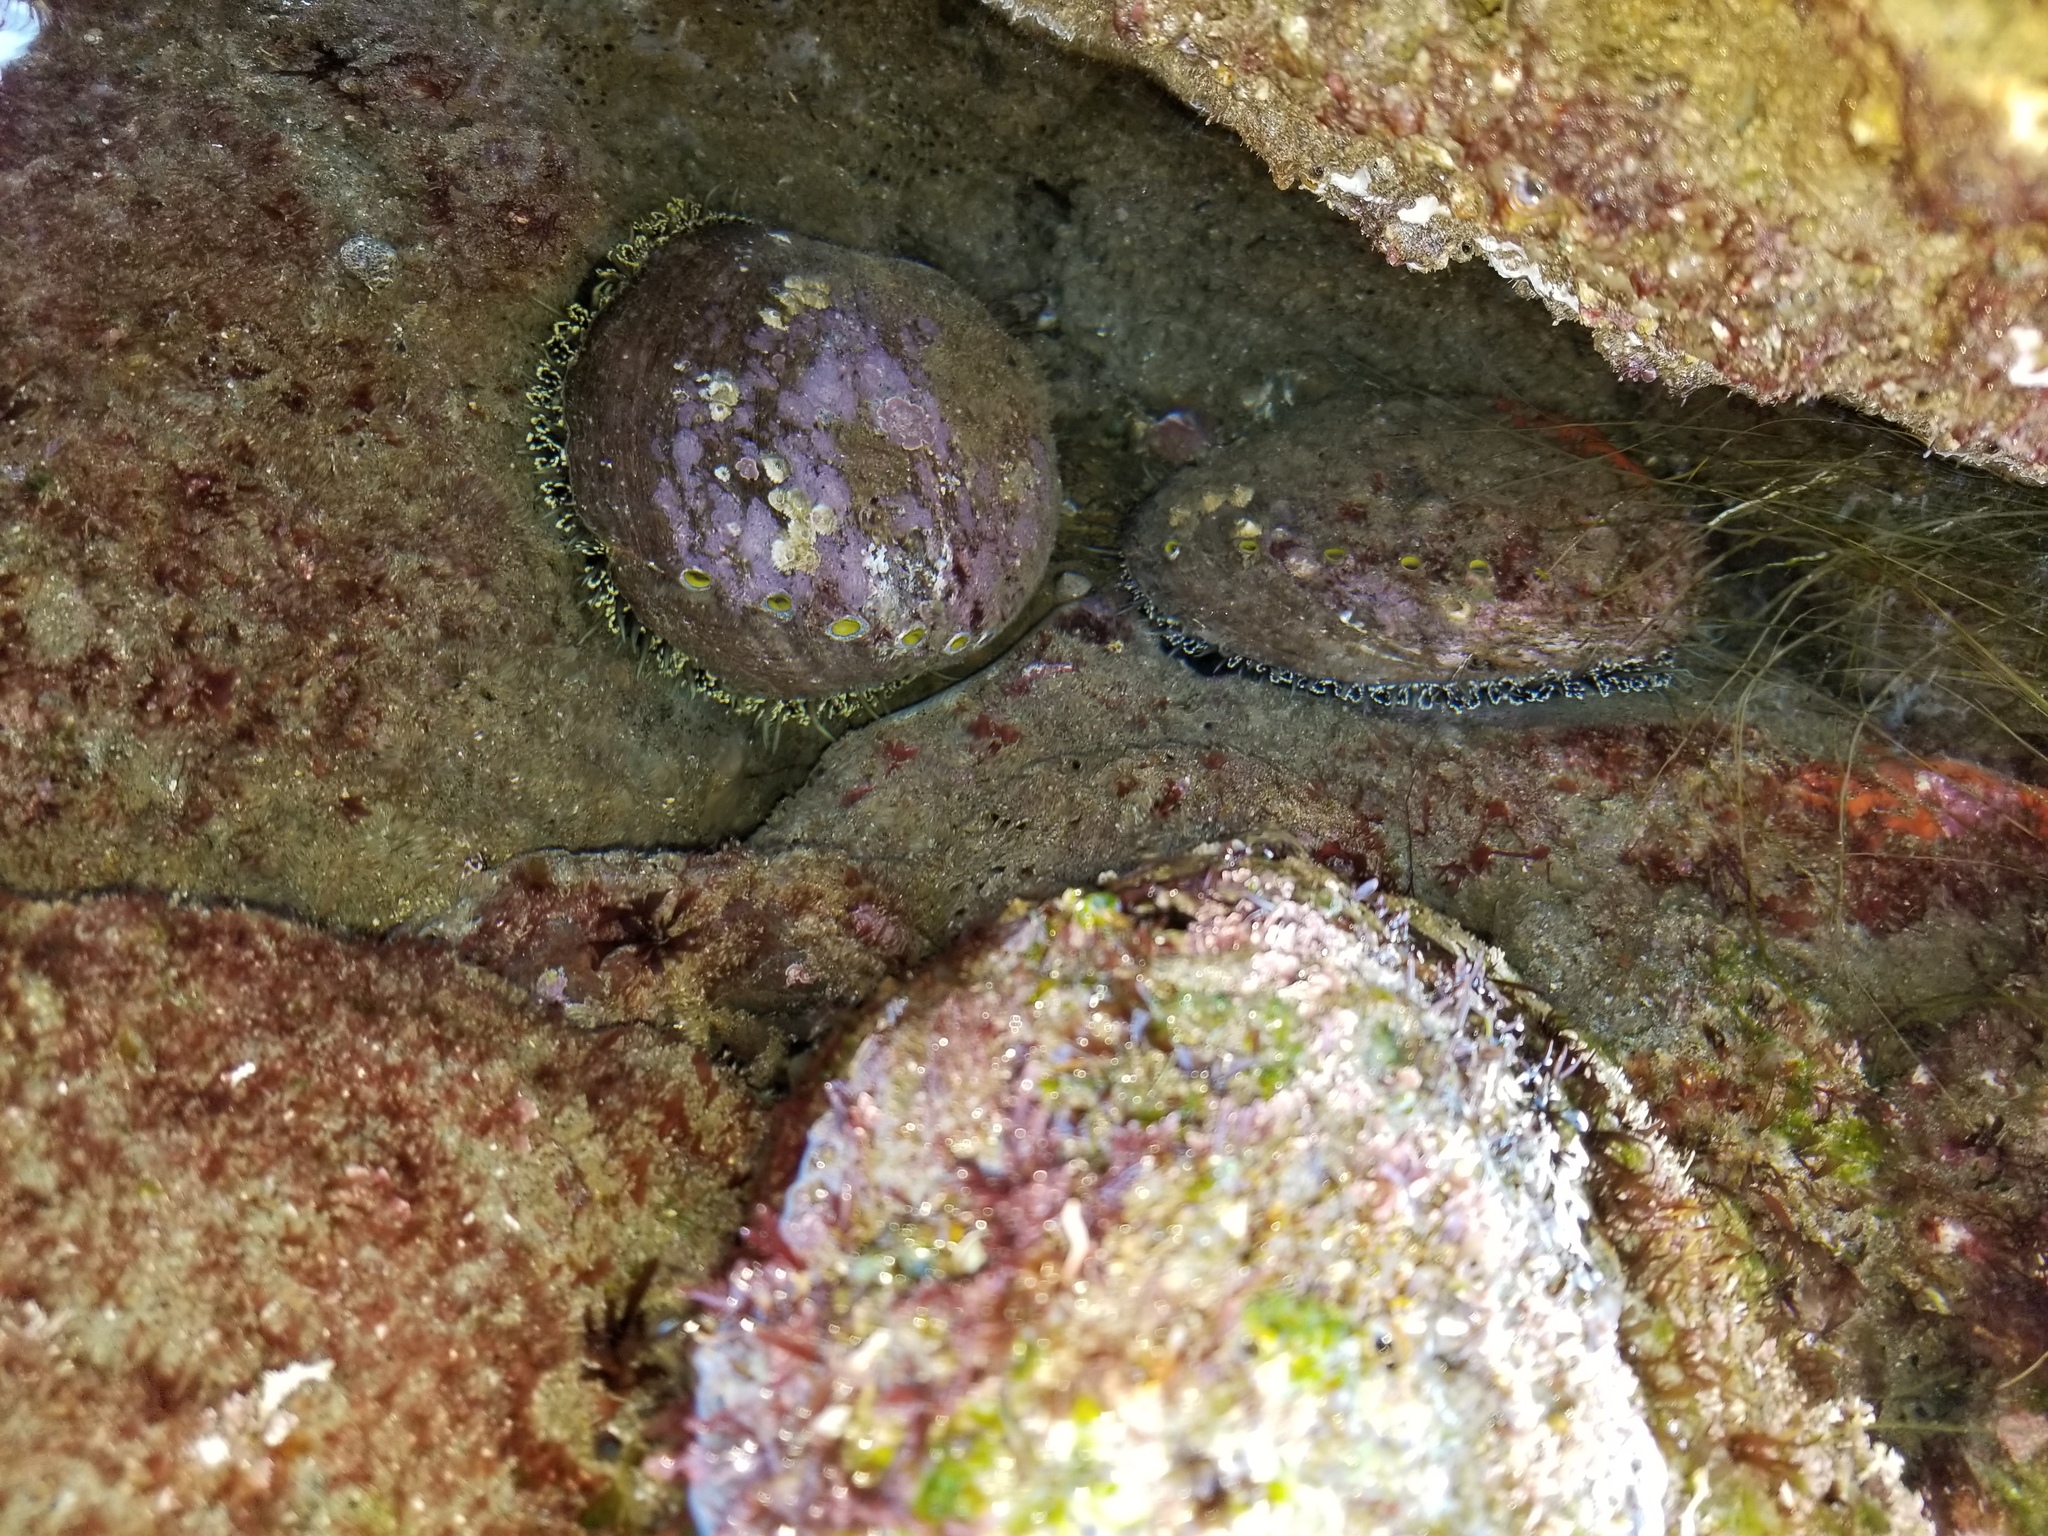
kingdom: Animalia
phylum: Mollusca
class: Gastropoda
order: Lepetellida
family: Haliotidae
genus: Haliotis
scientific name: Haliotis fulgens
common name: Green abalone
